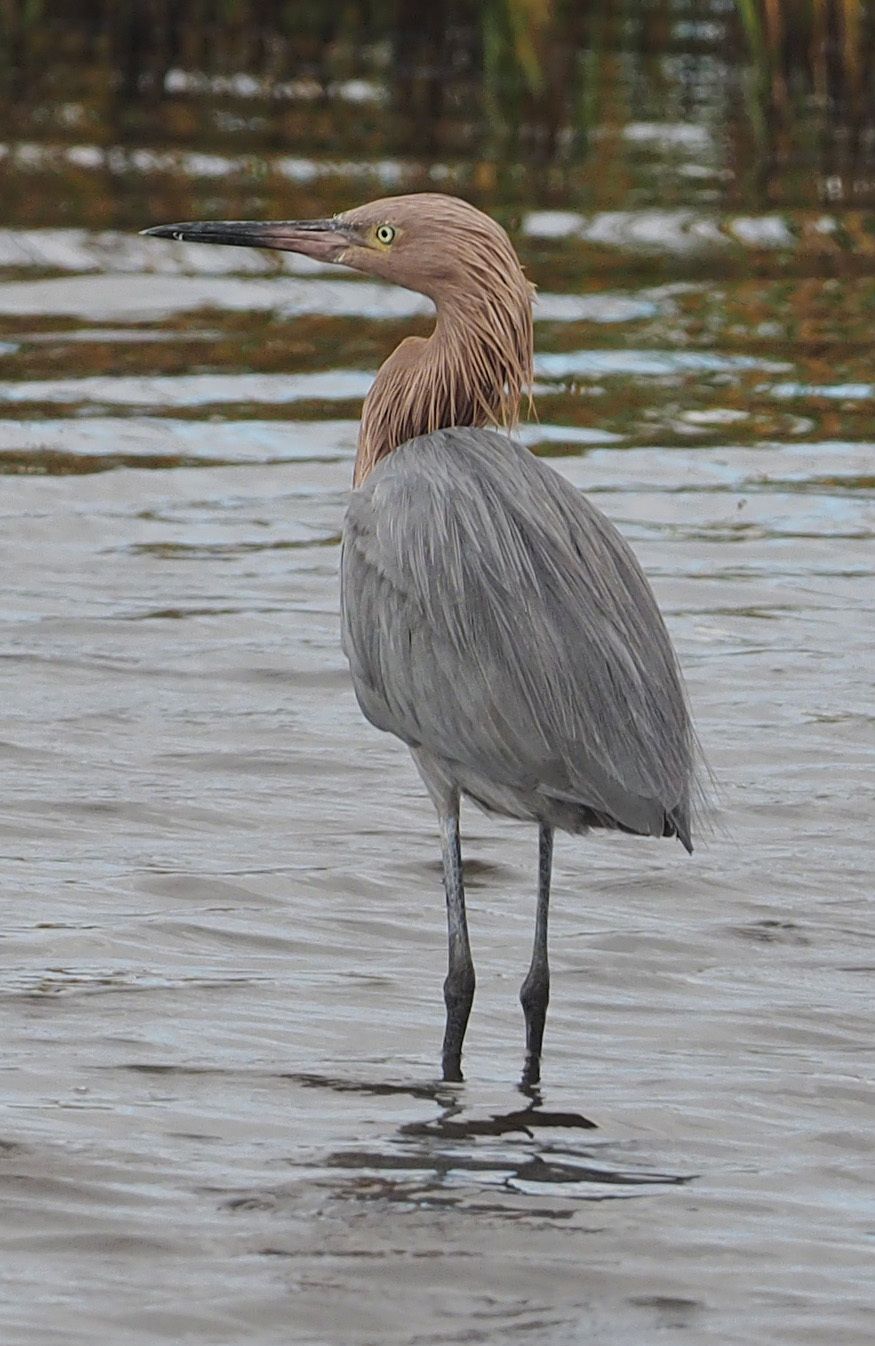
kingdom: Animalia
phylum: Chordata
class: Aves
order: Pelecaniformes
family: Ardeidae
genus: Egretta
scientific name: Egretta rufescens
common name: Reddish egret
